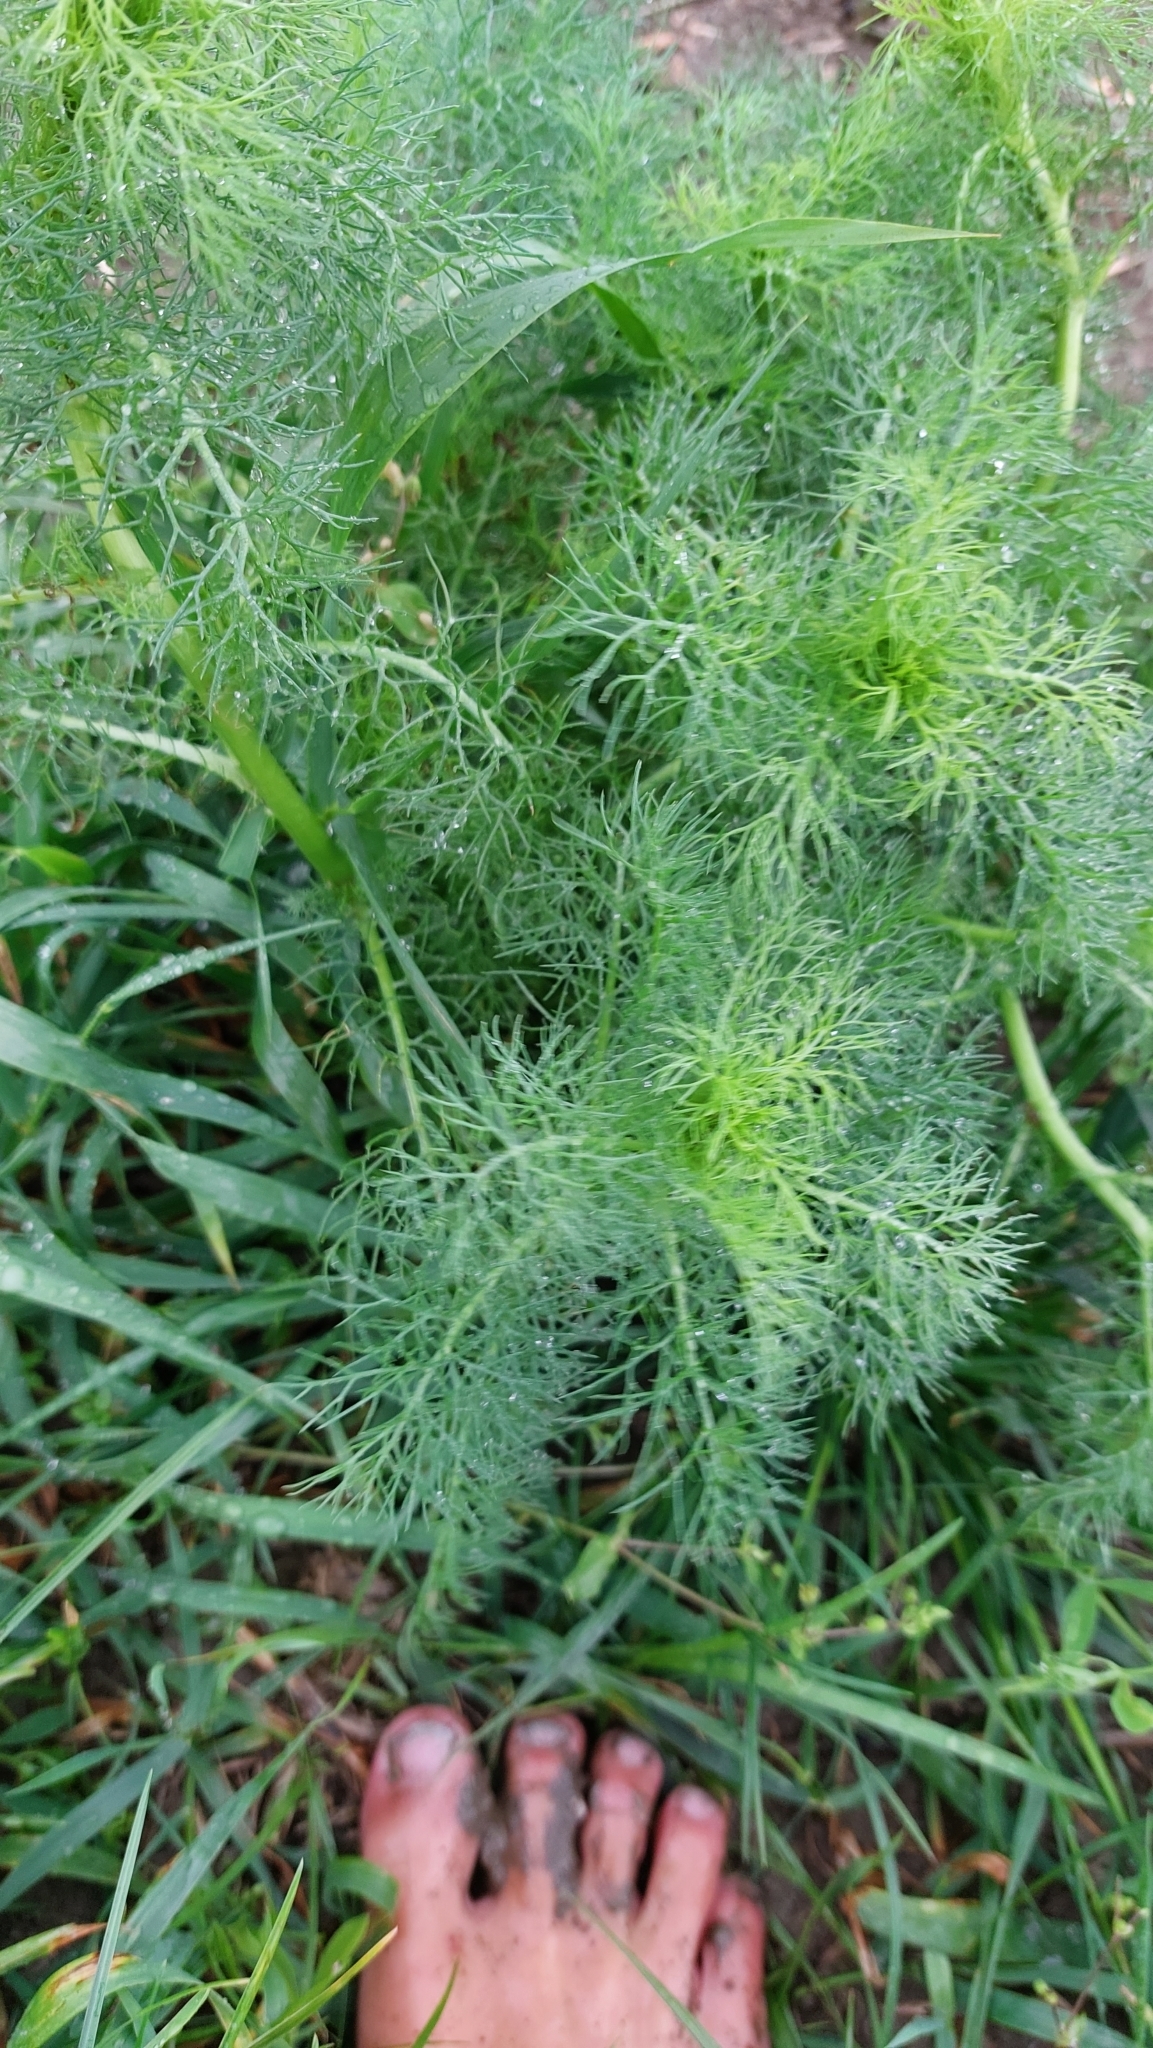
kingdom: Plantae
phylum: Tracheophyta
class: Magnoliopsida
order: Asterales
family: Asteraceae
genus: Tripleurospermum
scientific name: Tripleurospermum inodorum
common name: Scentless mayweed
